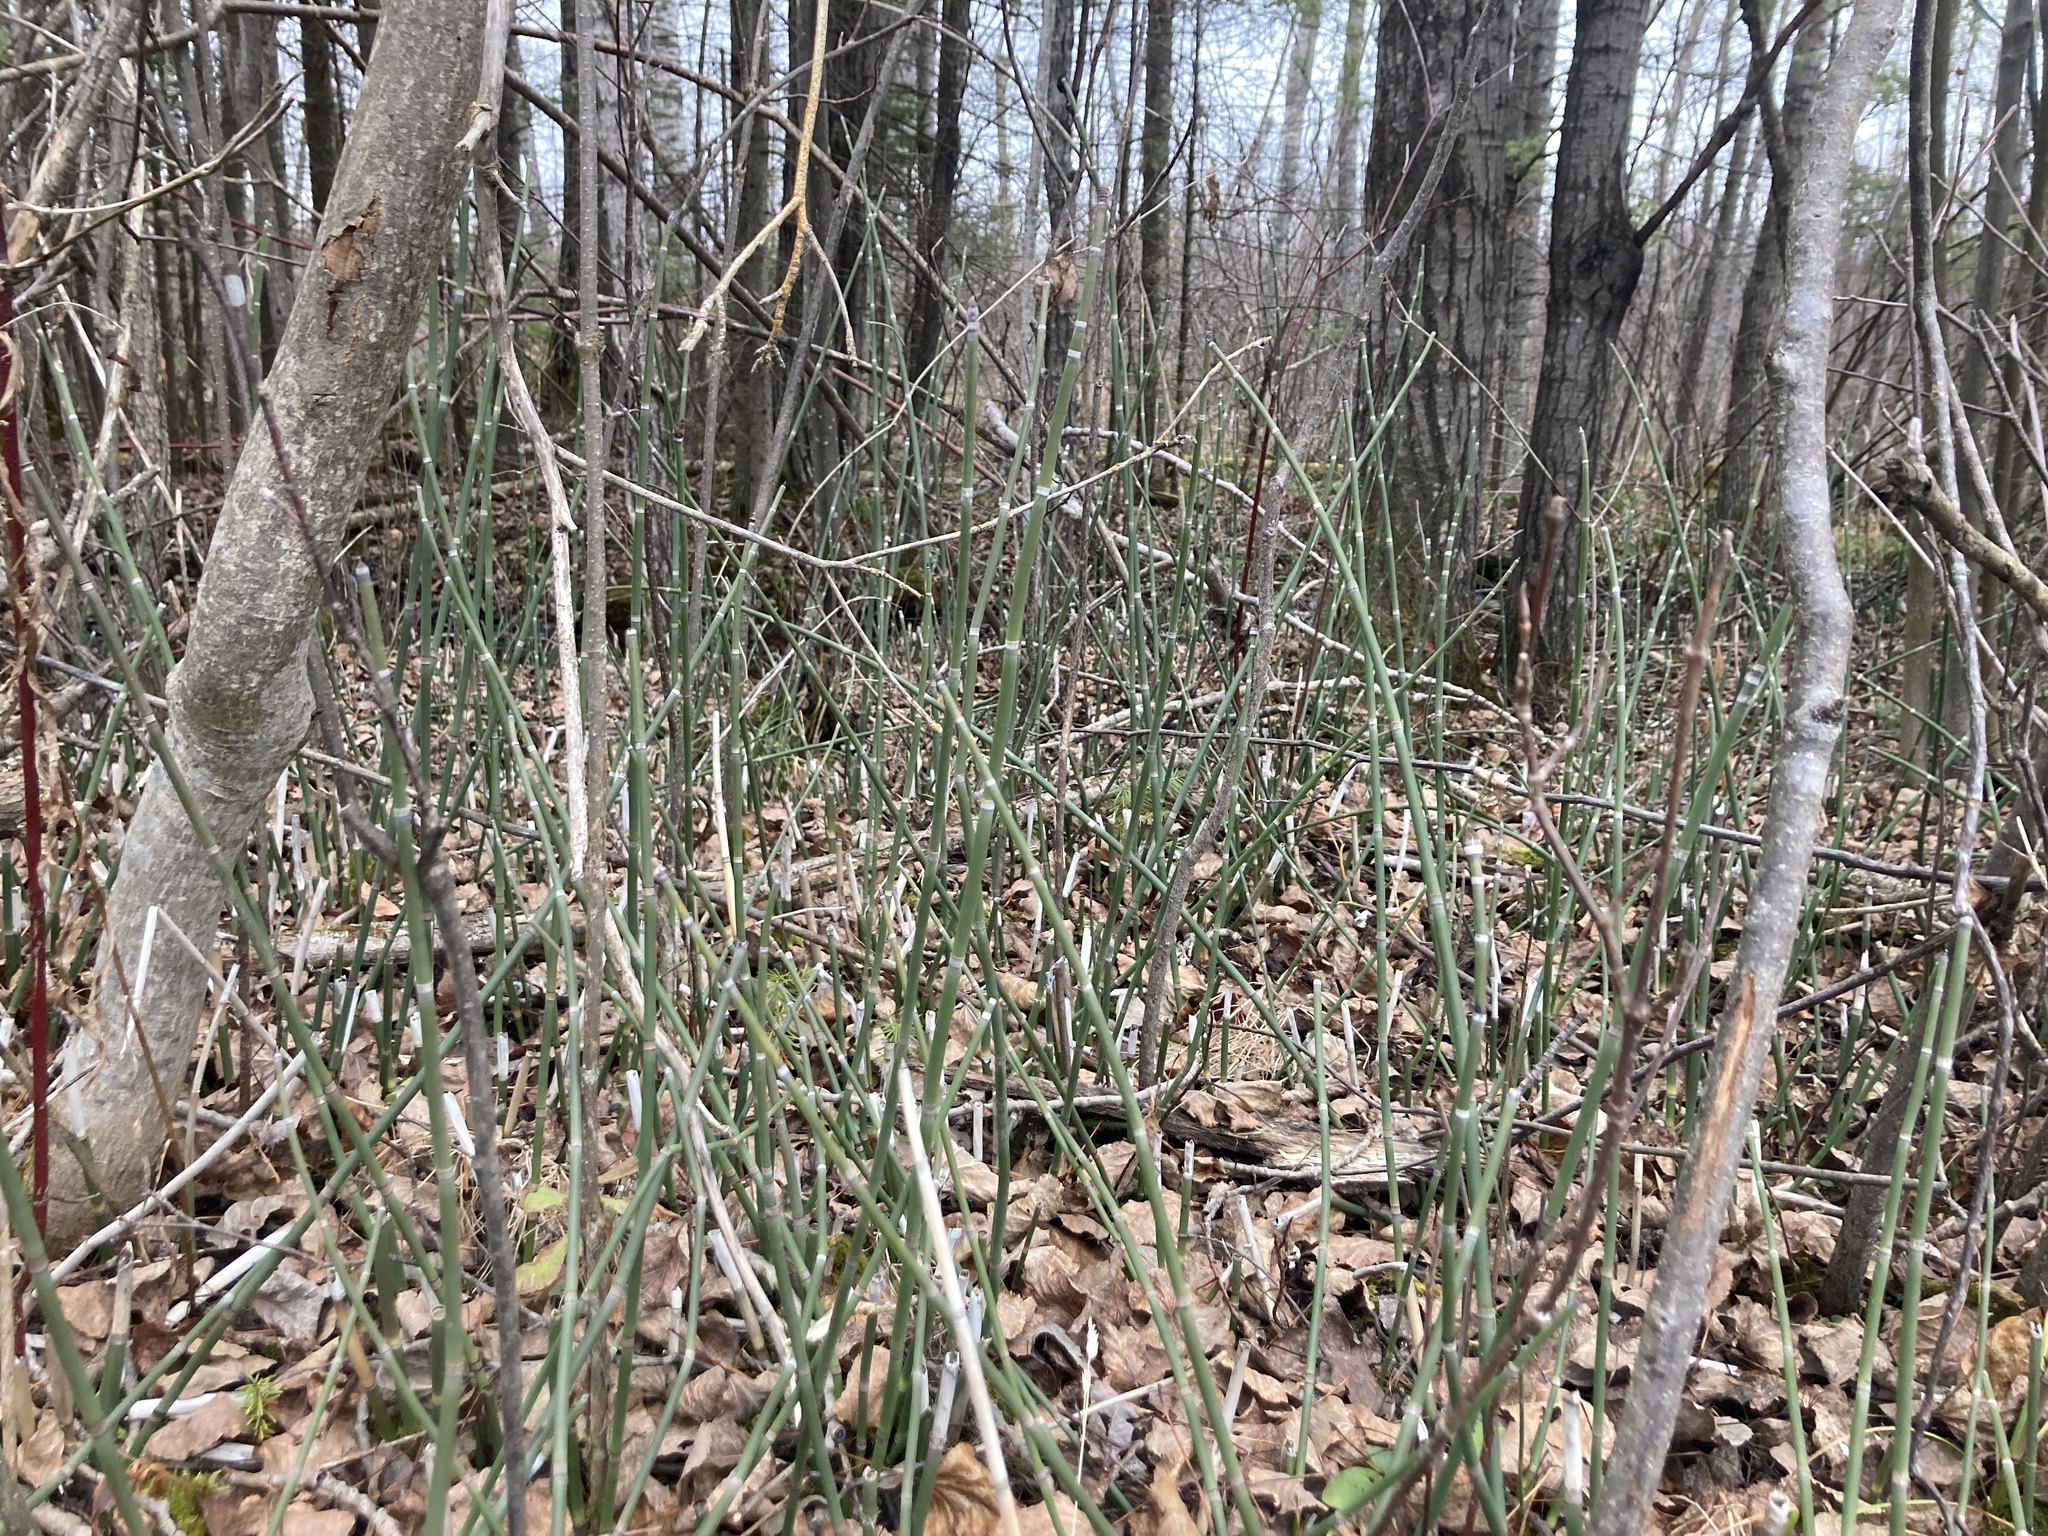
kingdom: Plantae
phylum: Tracheophyta
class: Polypodiopsida
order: Equisetales
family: Equisetaceae
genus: Equisetum
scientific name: Equisetum praealtum
